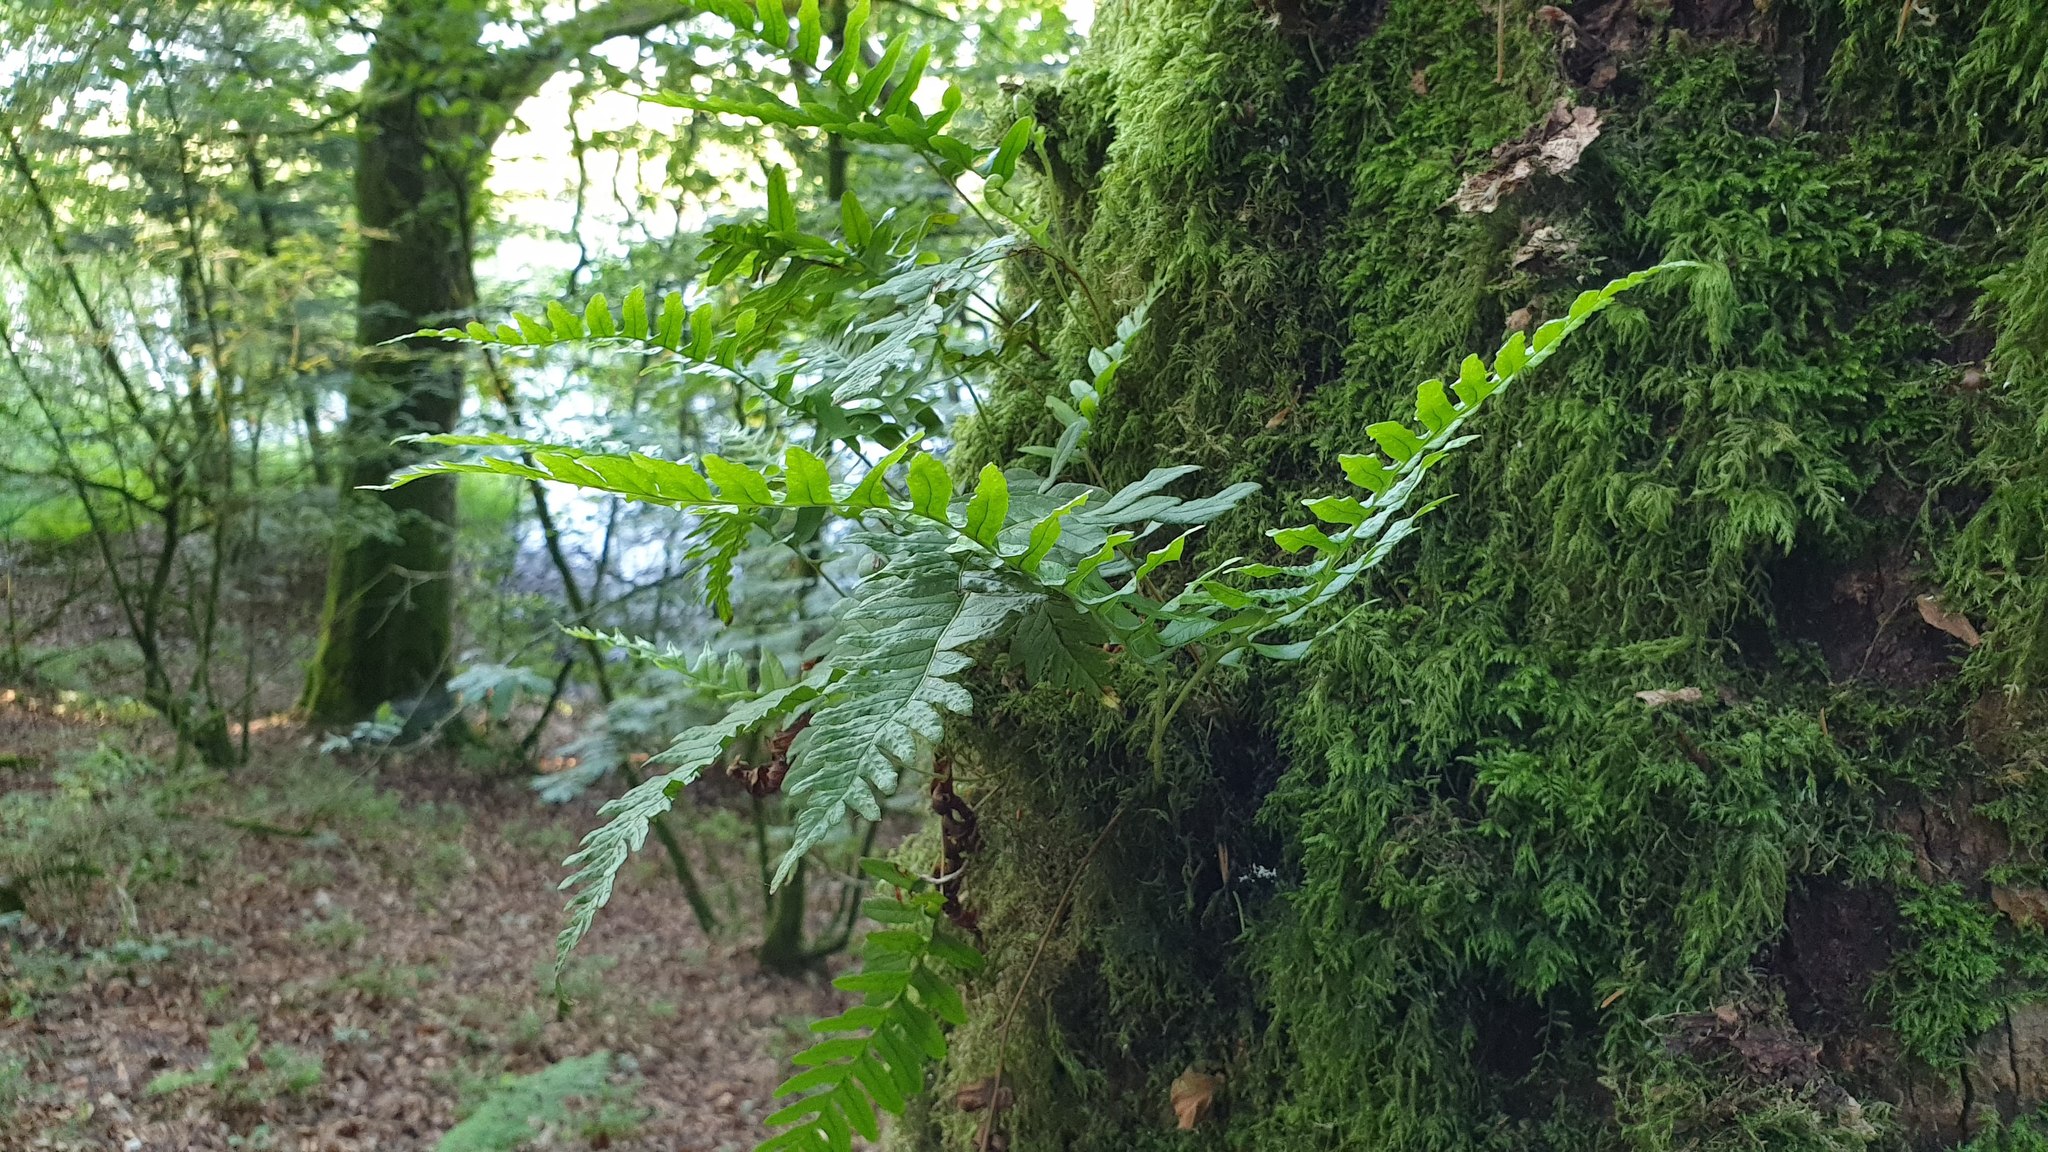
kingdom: Plantae
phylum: Tracheophyta
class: Polypodiopsida
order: Polypodiales
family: Polypodiaceae
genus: Polypodium
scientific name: Polypodium vulgare
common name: Common polypody
